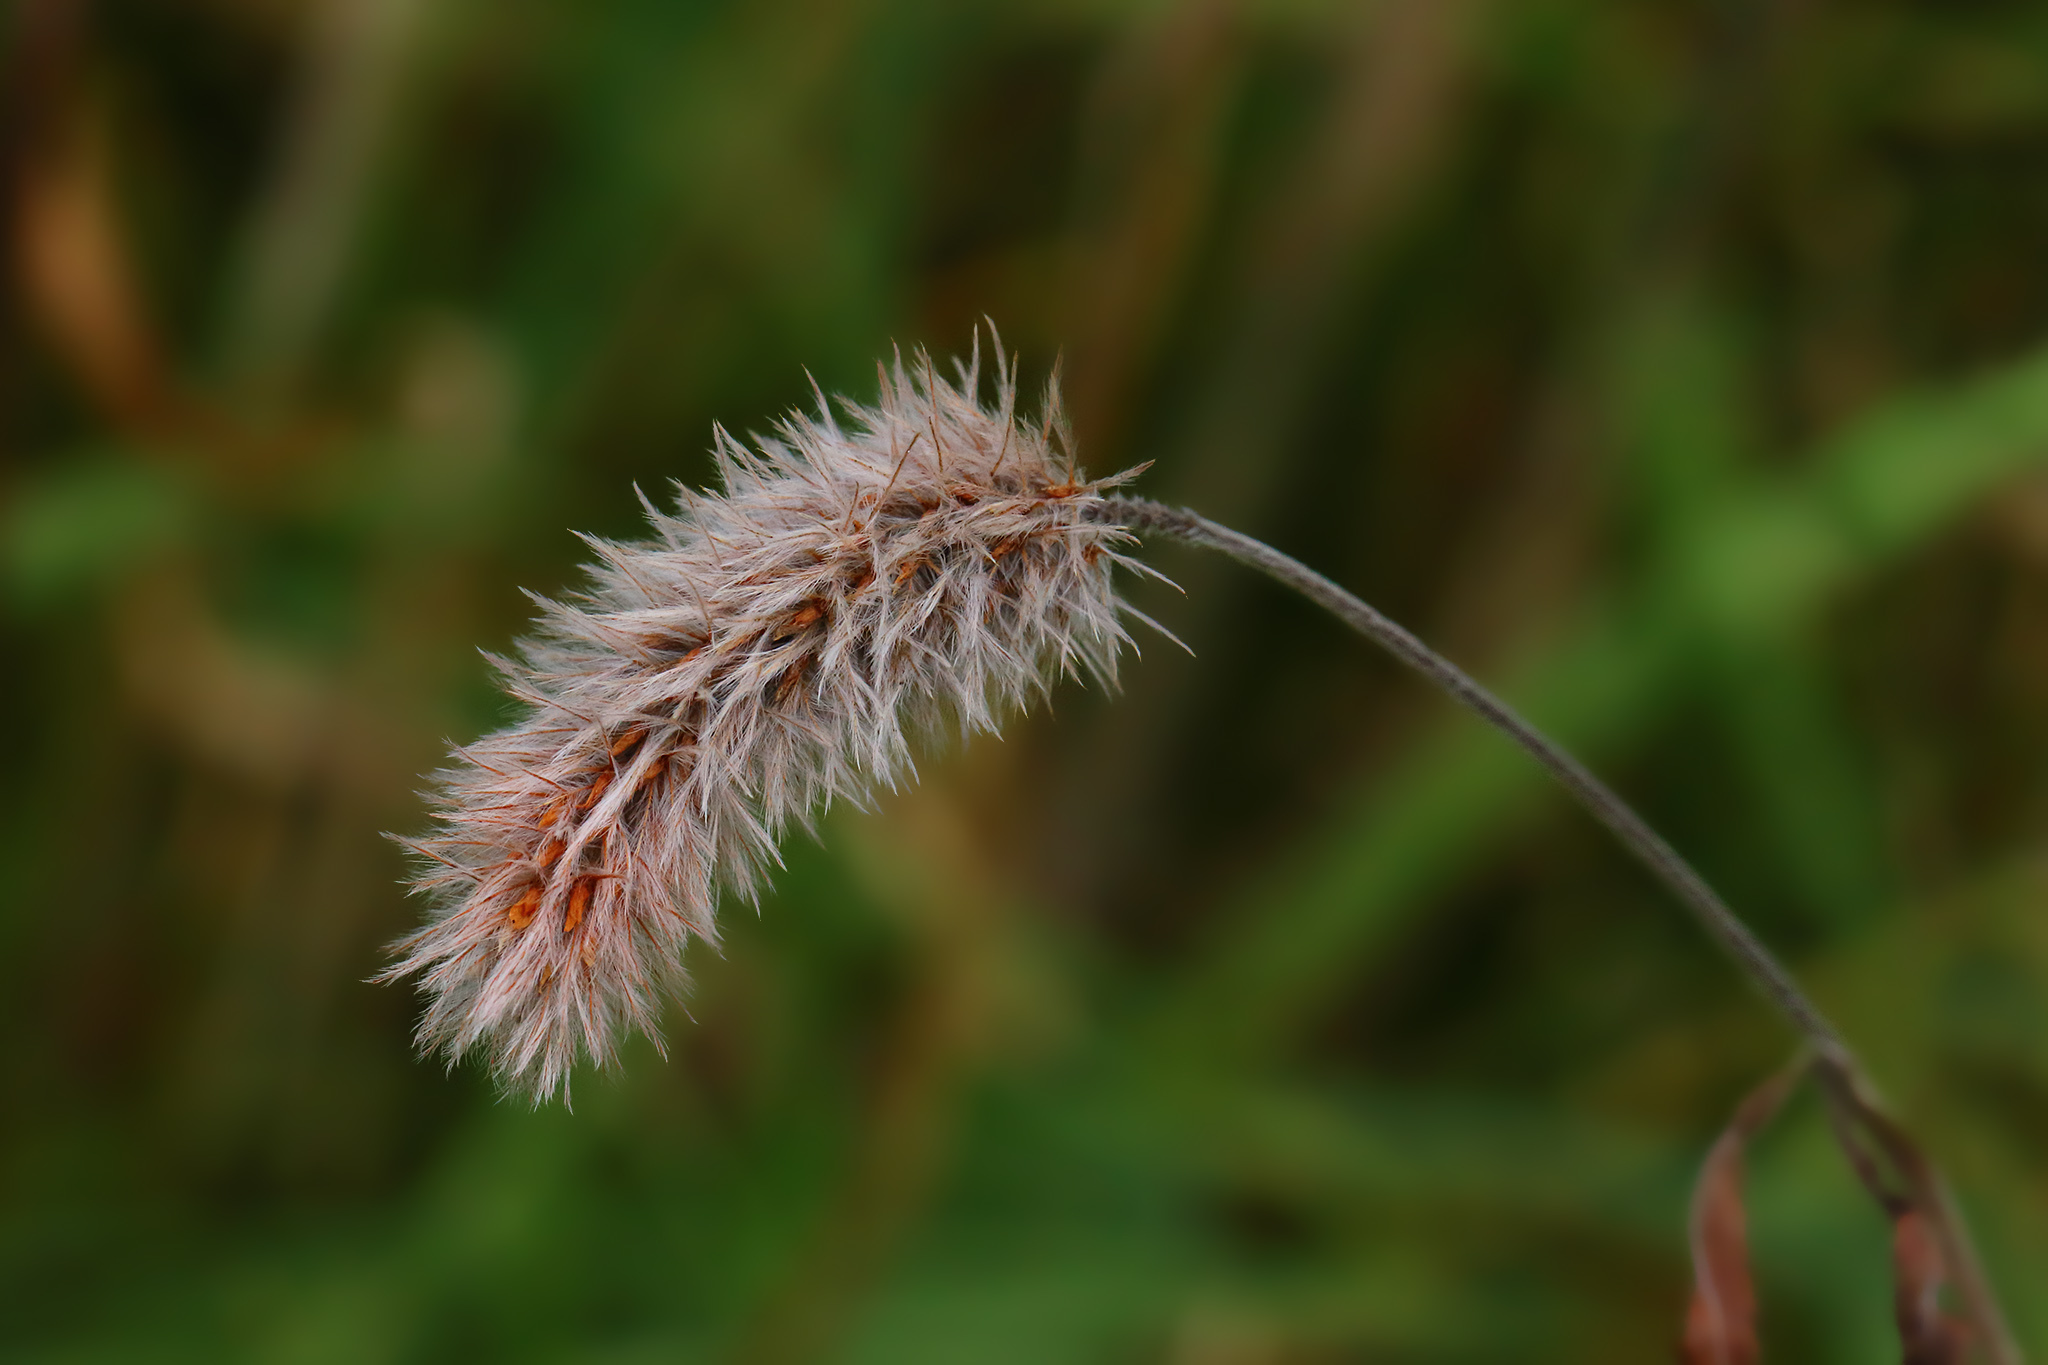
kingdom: Plantae
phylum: Tracheophyta
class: Magnoliopsida
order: Fabales
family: Fabaceae
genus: Trifolium
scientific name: Trifolium arvense
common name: Hare's-foot clover
